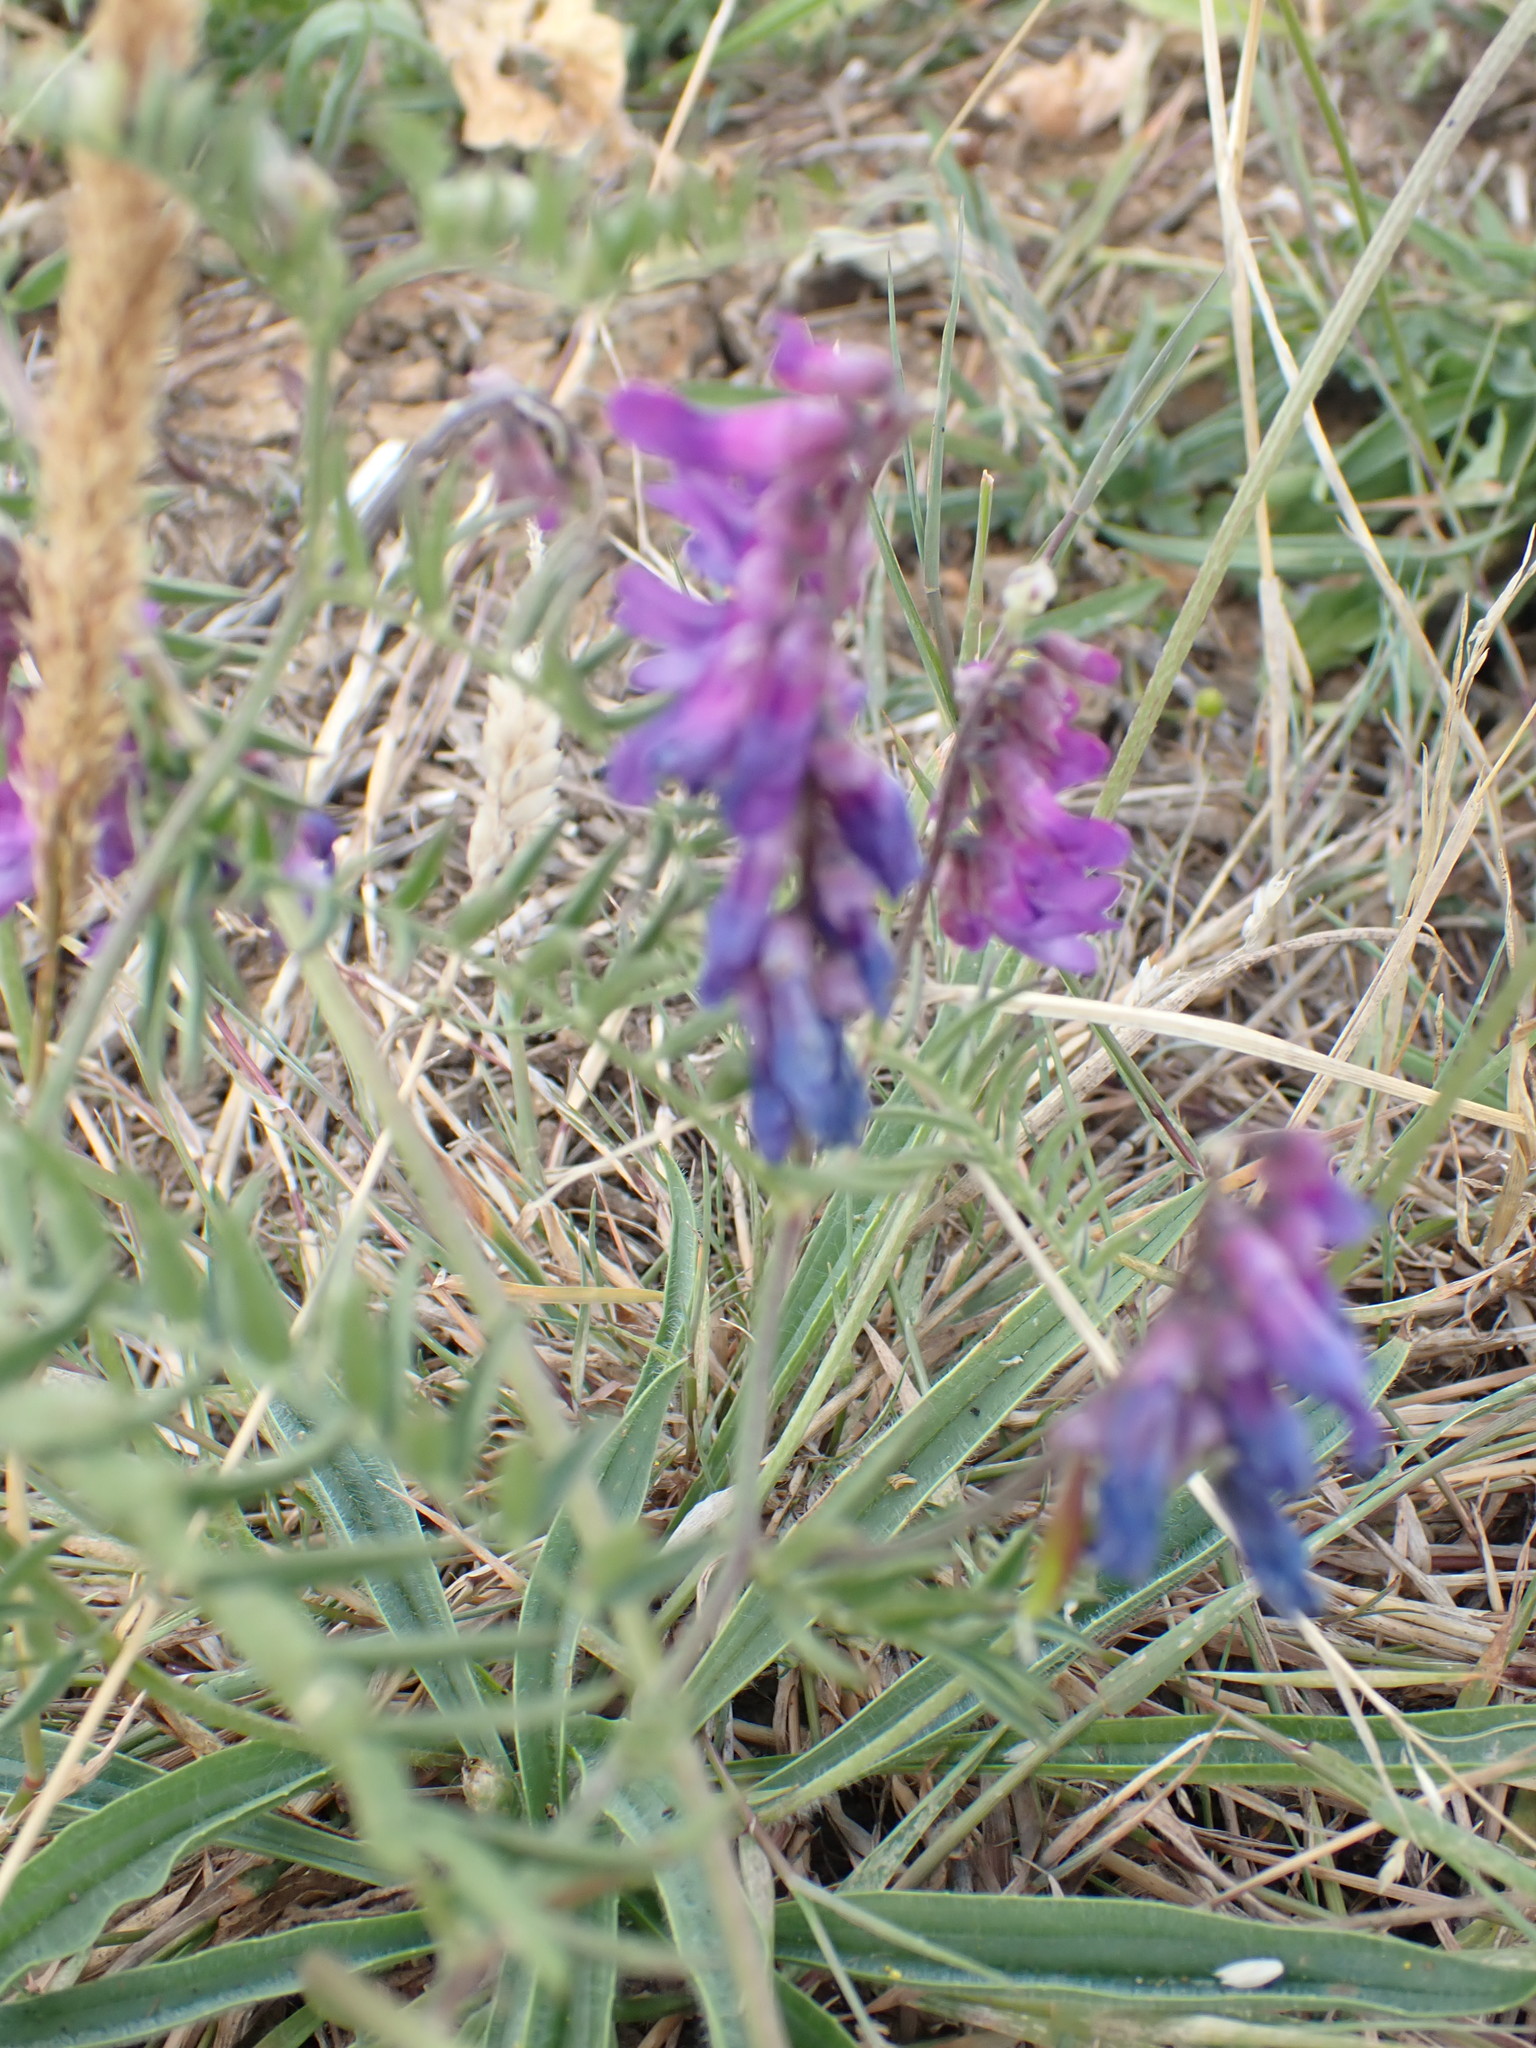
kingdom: Plantae
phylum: Tracheophyta
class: Magnoliopsida
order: Fabales
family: Fabaceae
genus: Vicia
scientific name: Vicia cracca
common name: Bird vetch
